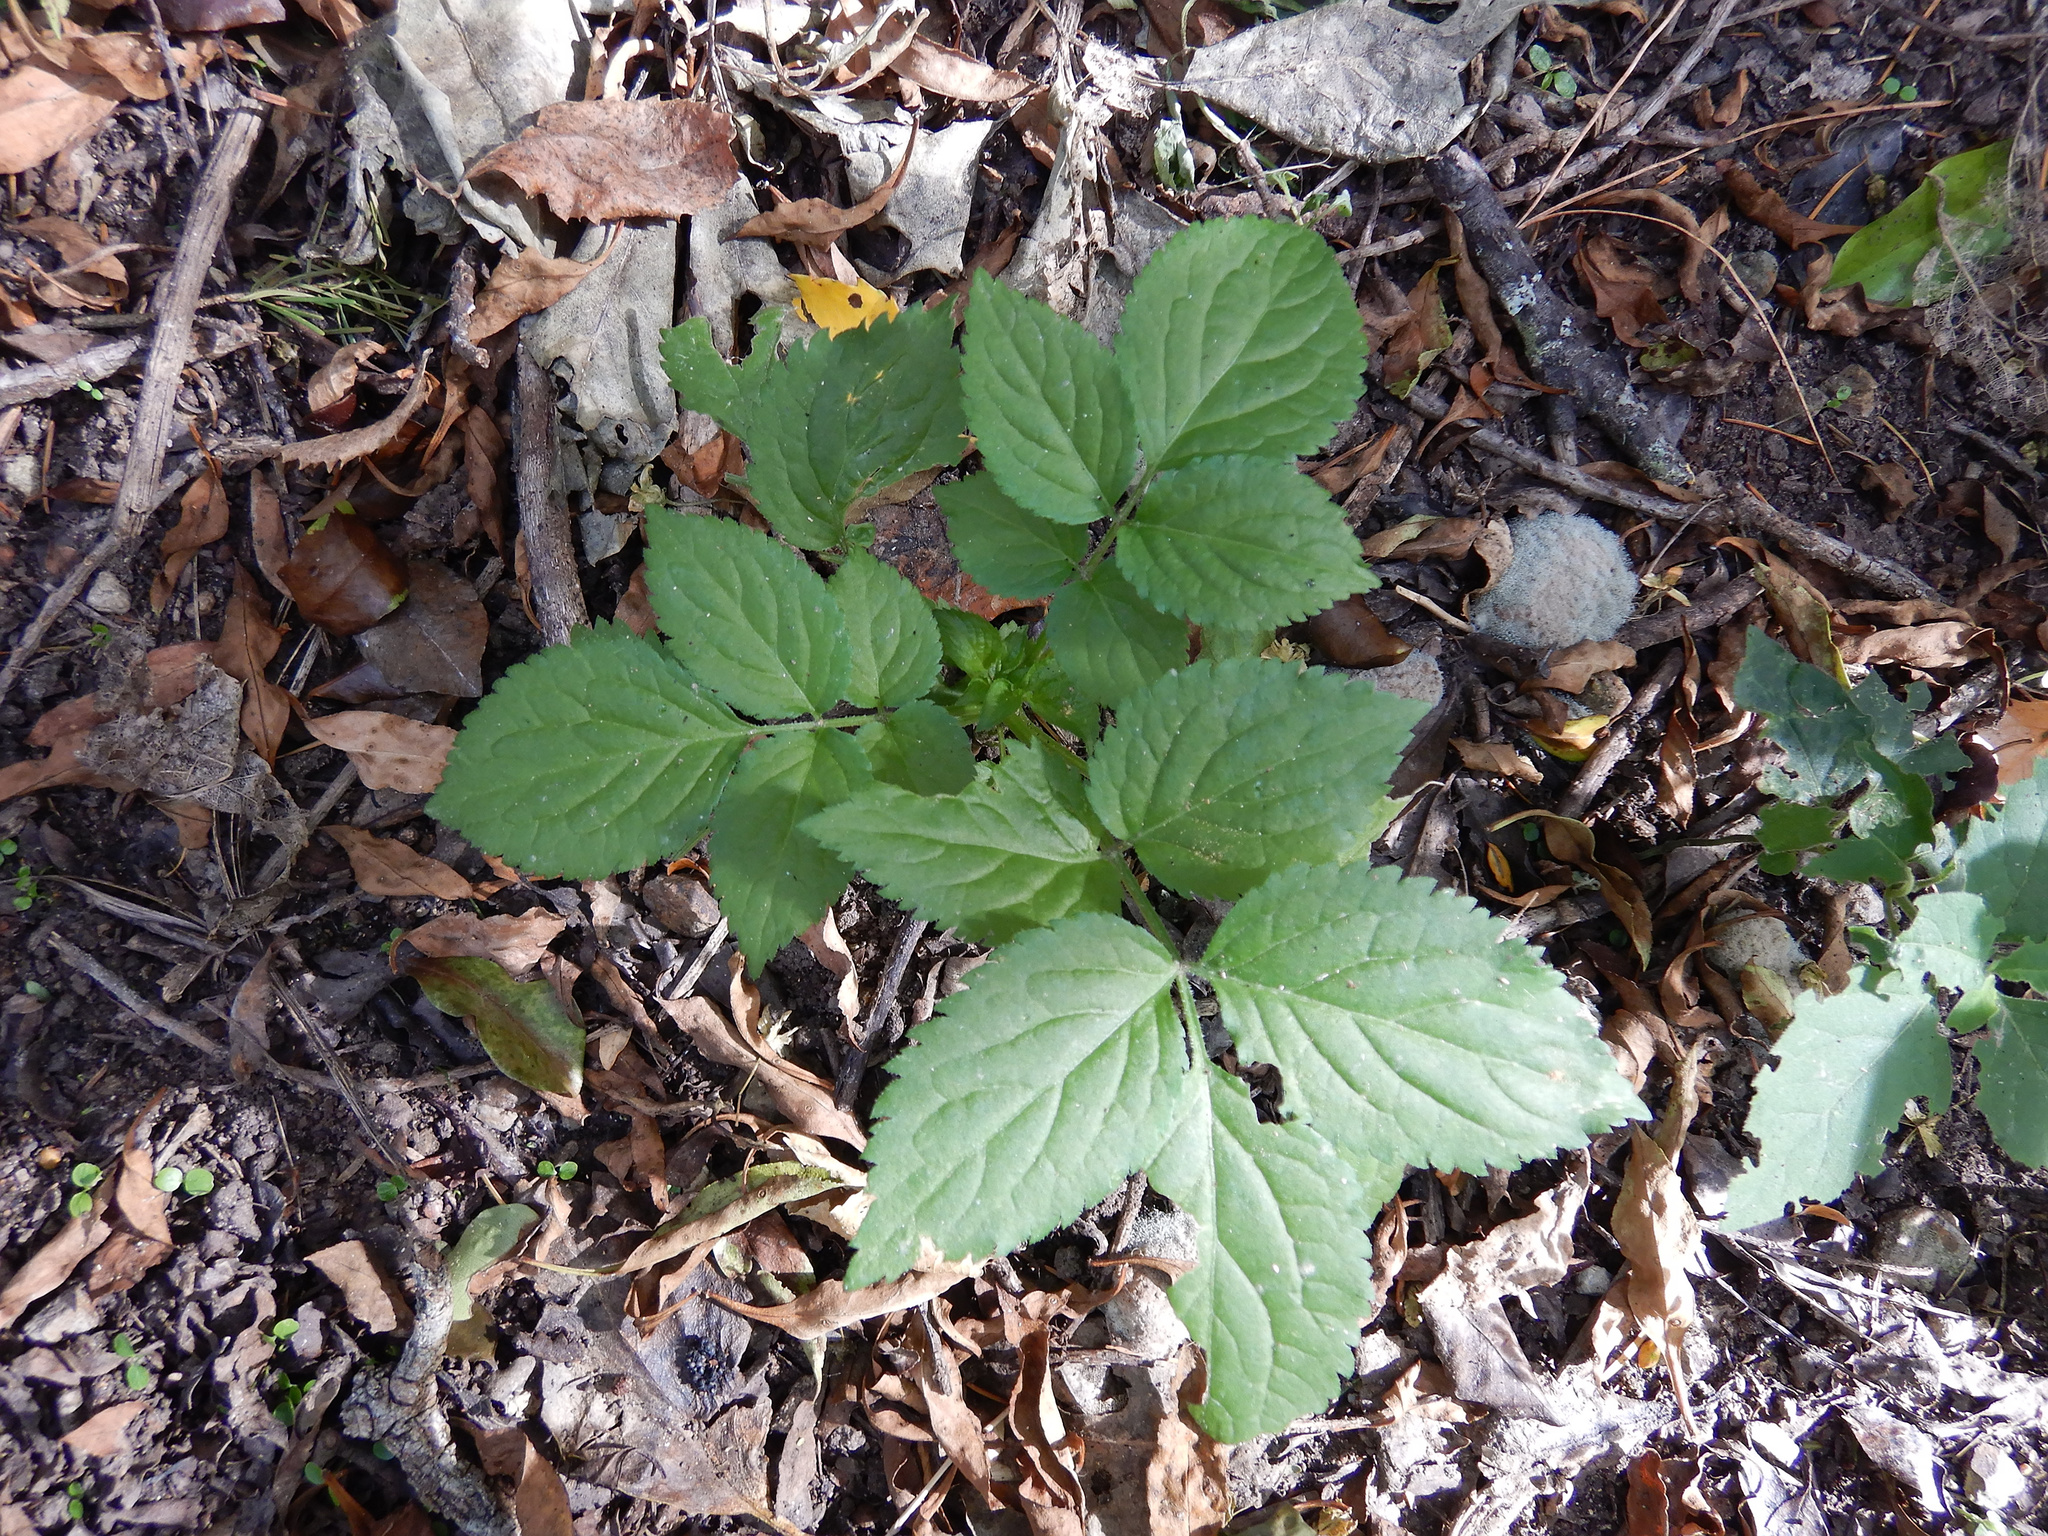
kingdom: Plantae
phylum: Tracheophyta
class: Magnoliopsida
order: Dipsacales
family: Viburnaceae
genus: Sambucus
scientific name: Sambucus nigra
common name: Elder
